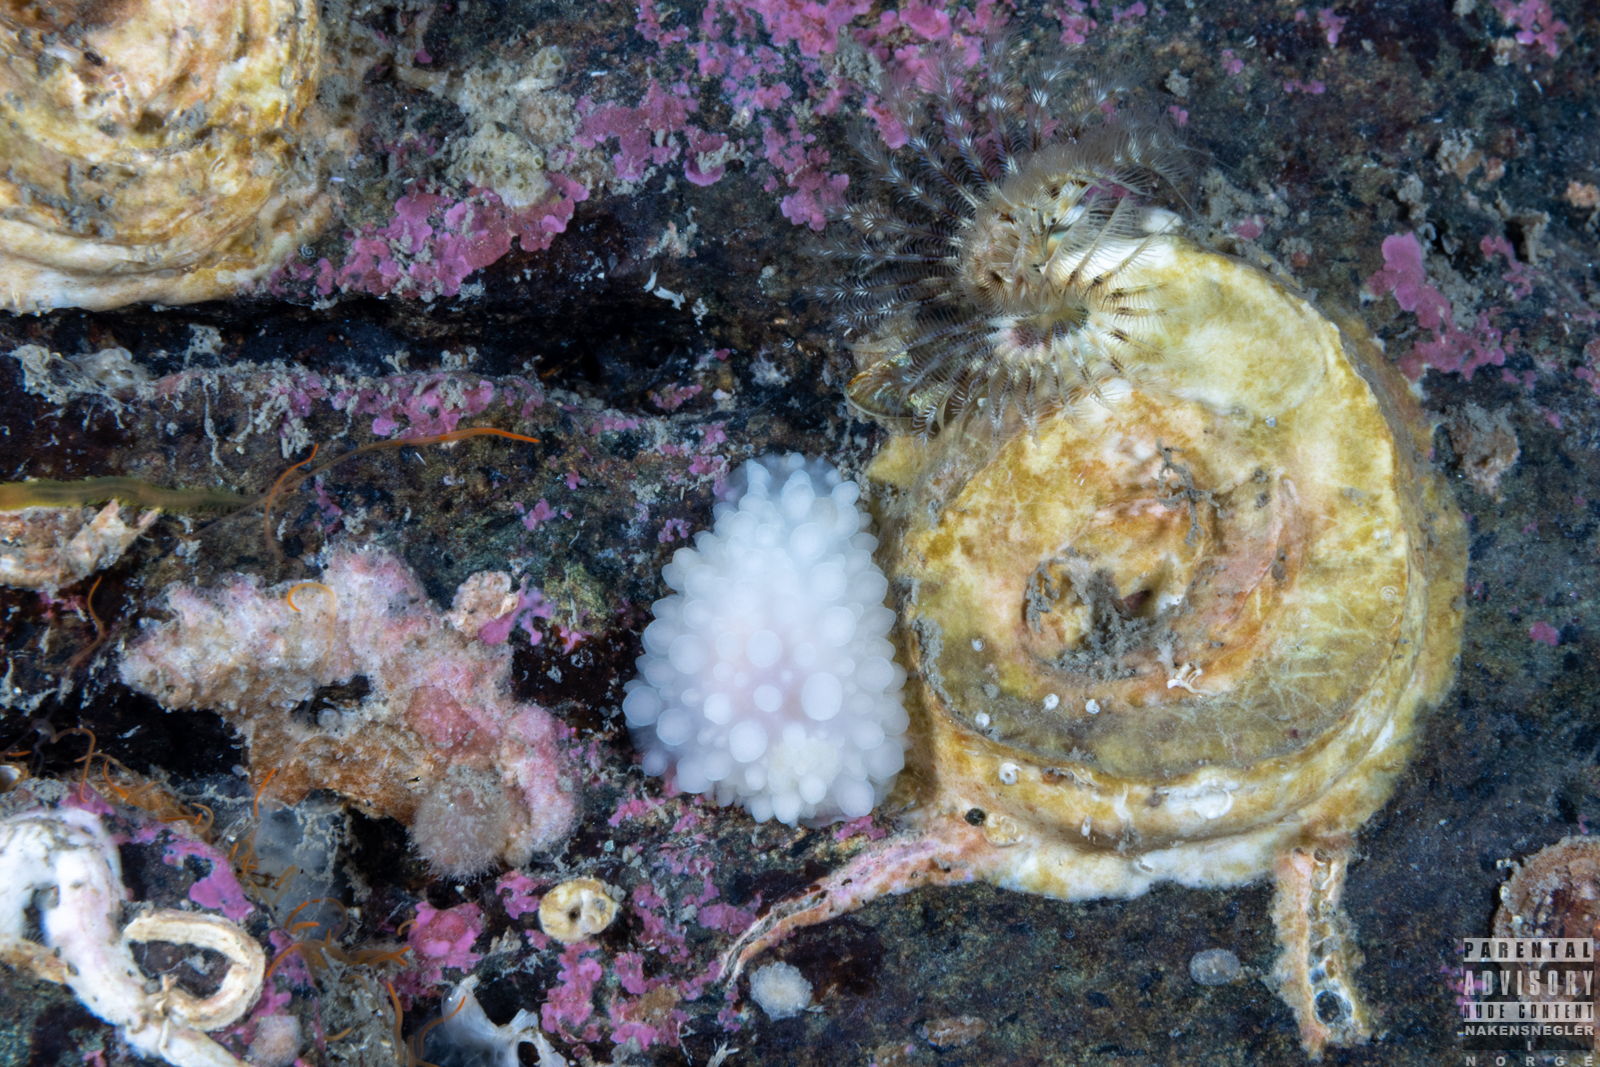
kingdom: Animalia
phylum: Mollusca
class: Gastropoda
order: Nudibranchia
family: Onchidorididae
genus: Adalaria
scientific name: Adalaria loveni
